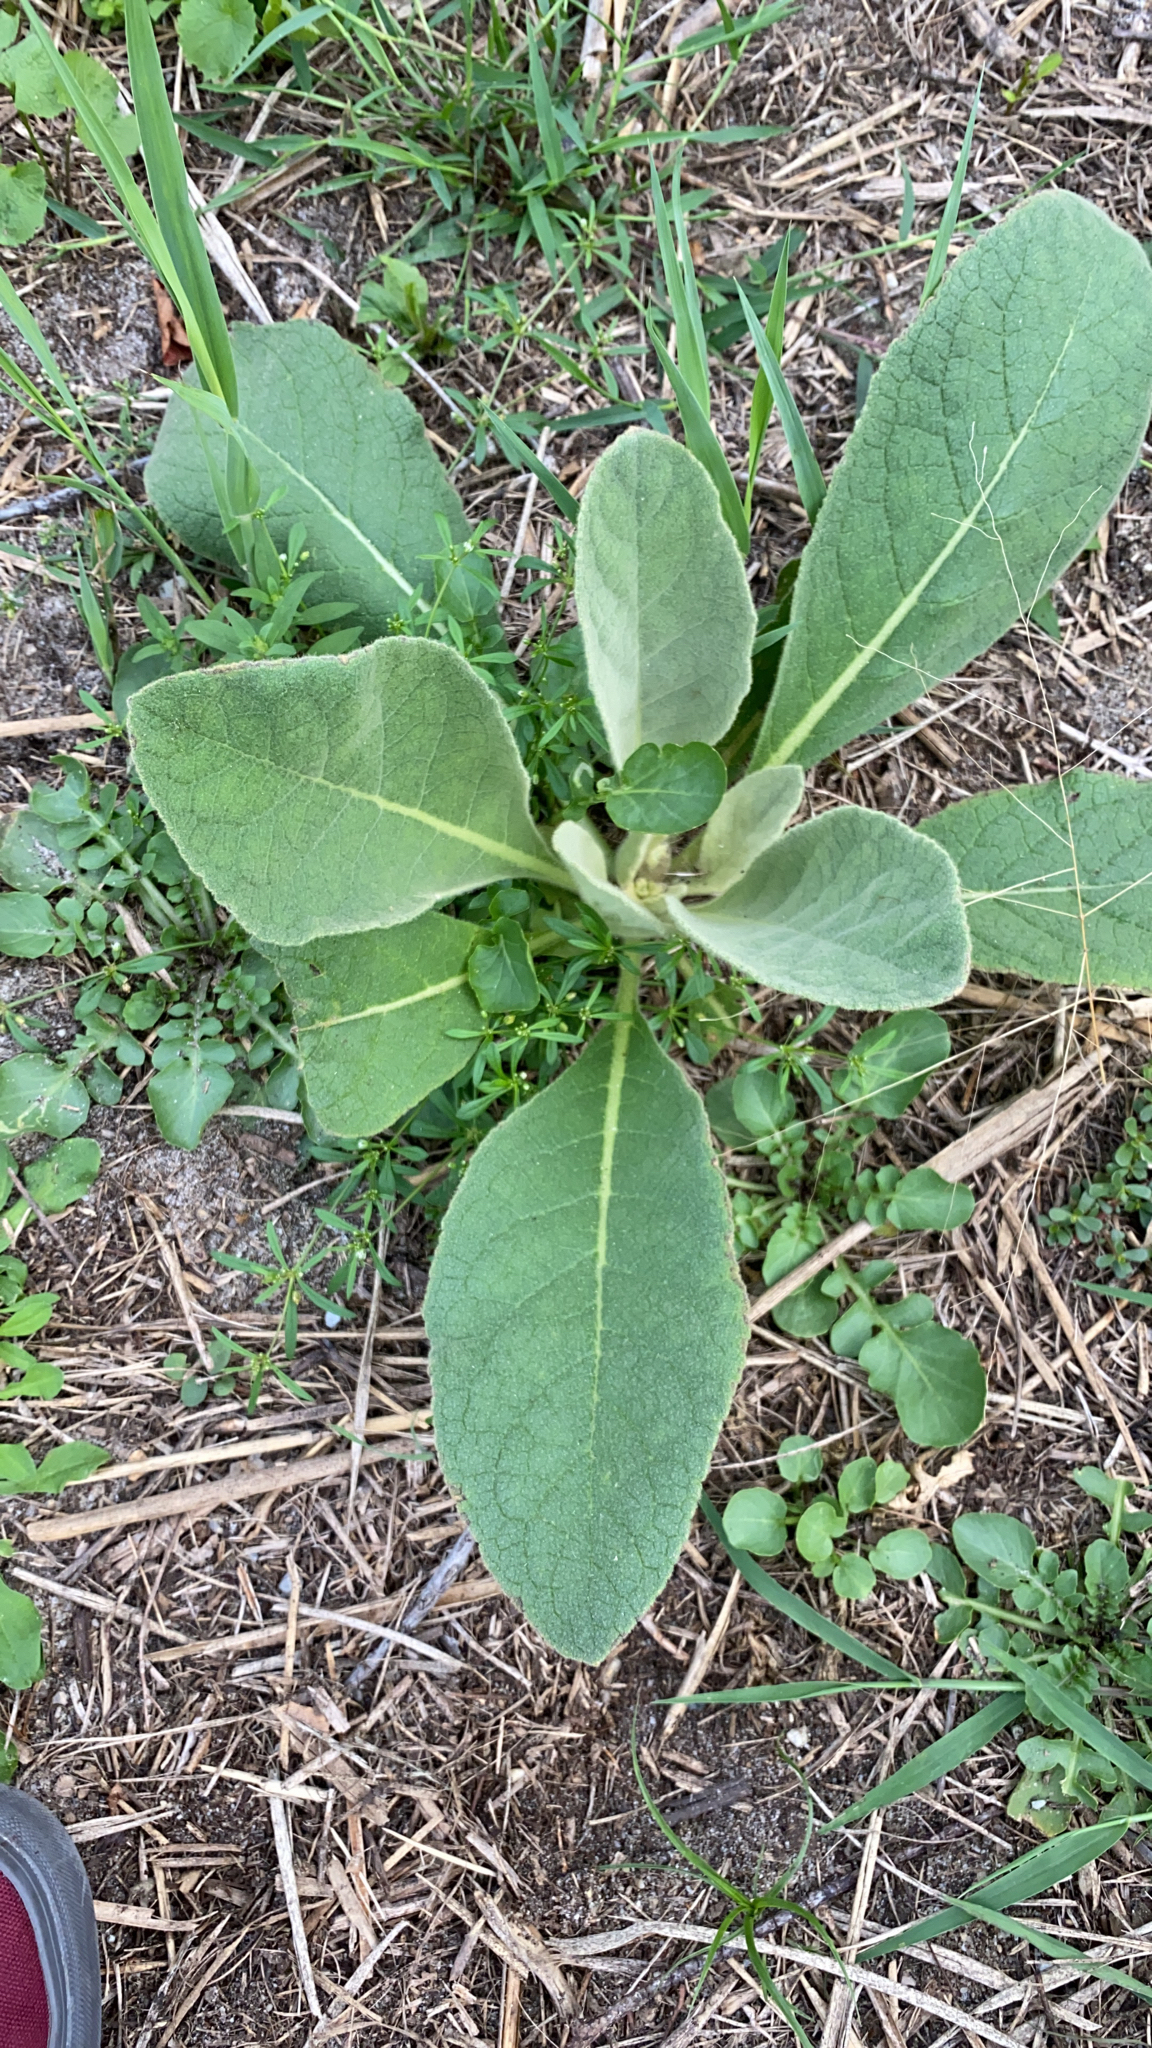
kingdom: Plantae
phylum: Tracheophyta
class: Magnoliopsida
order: Lamiales
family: Scrophulariaceae
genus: Verbascum
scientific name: Verbascum thapsus
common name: Common mullein
